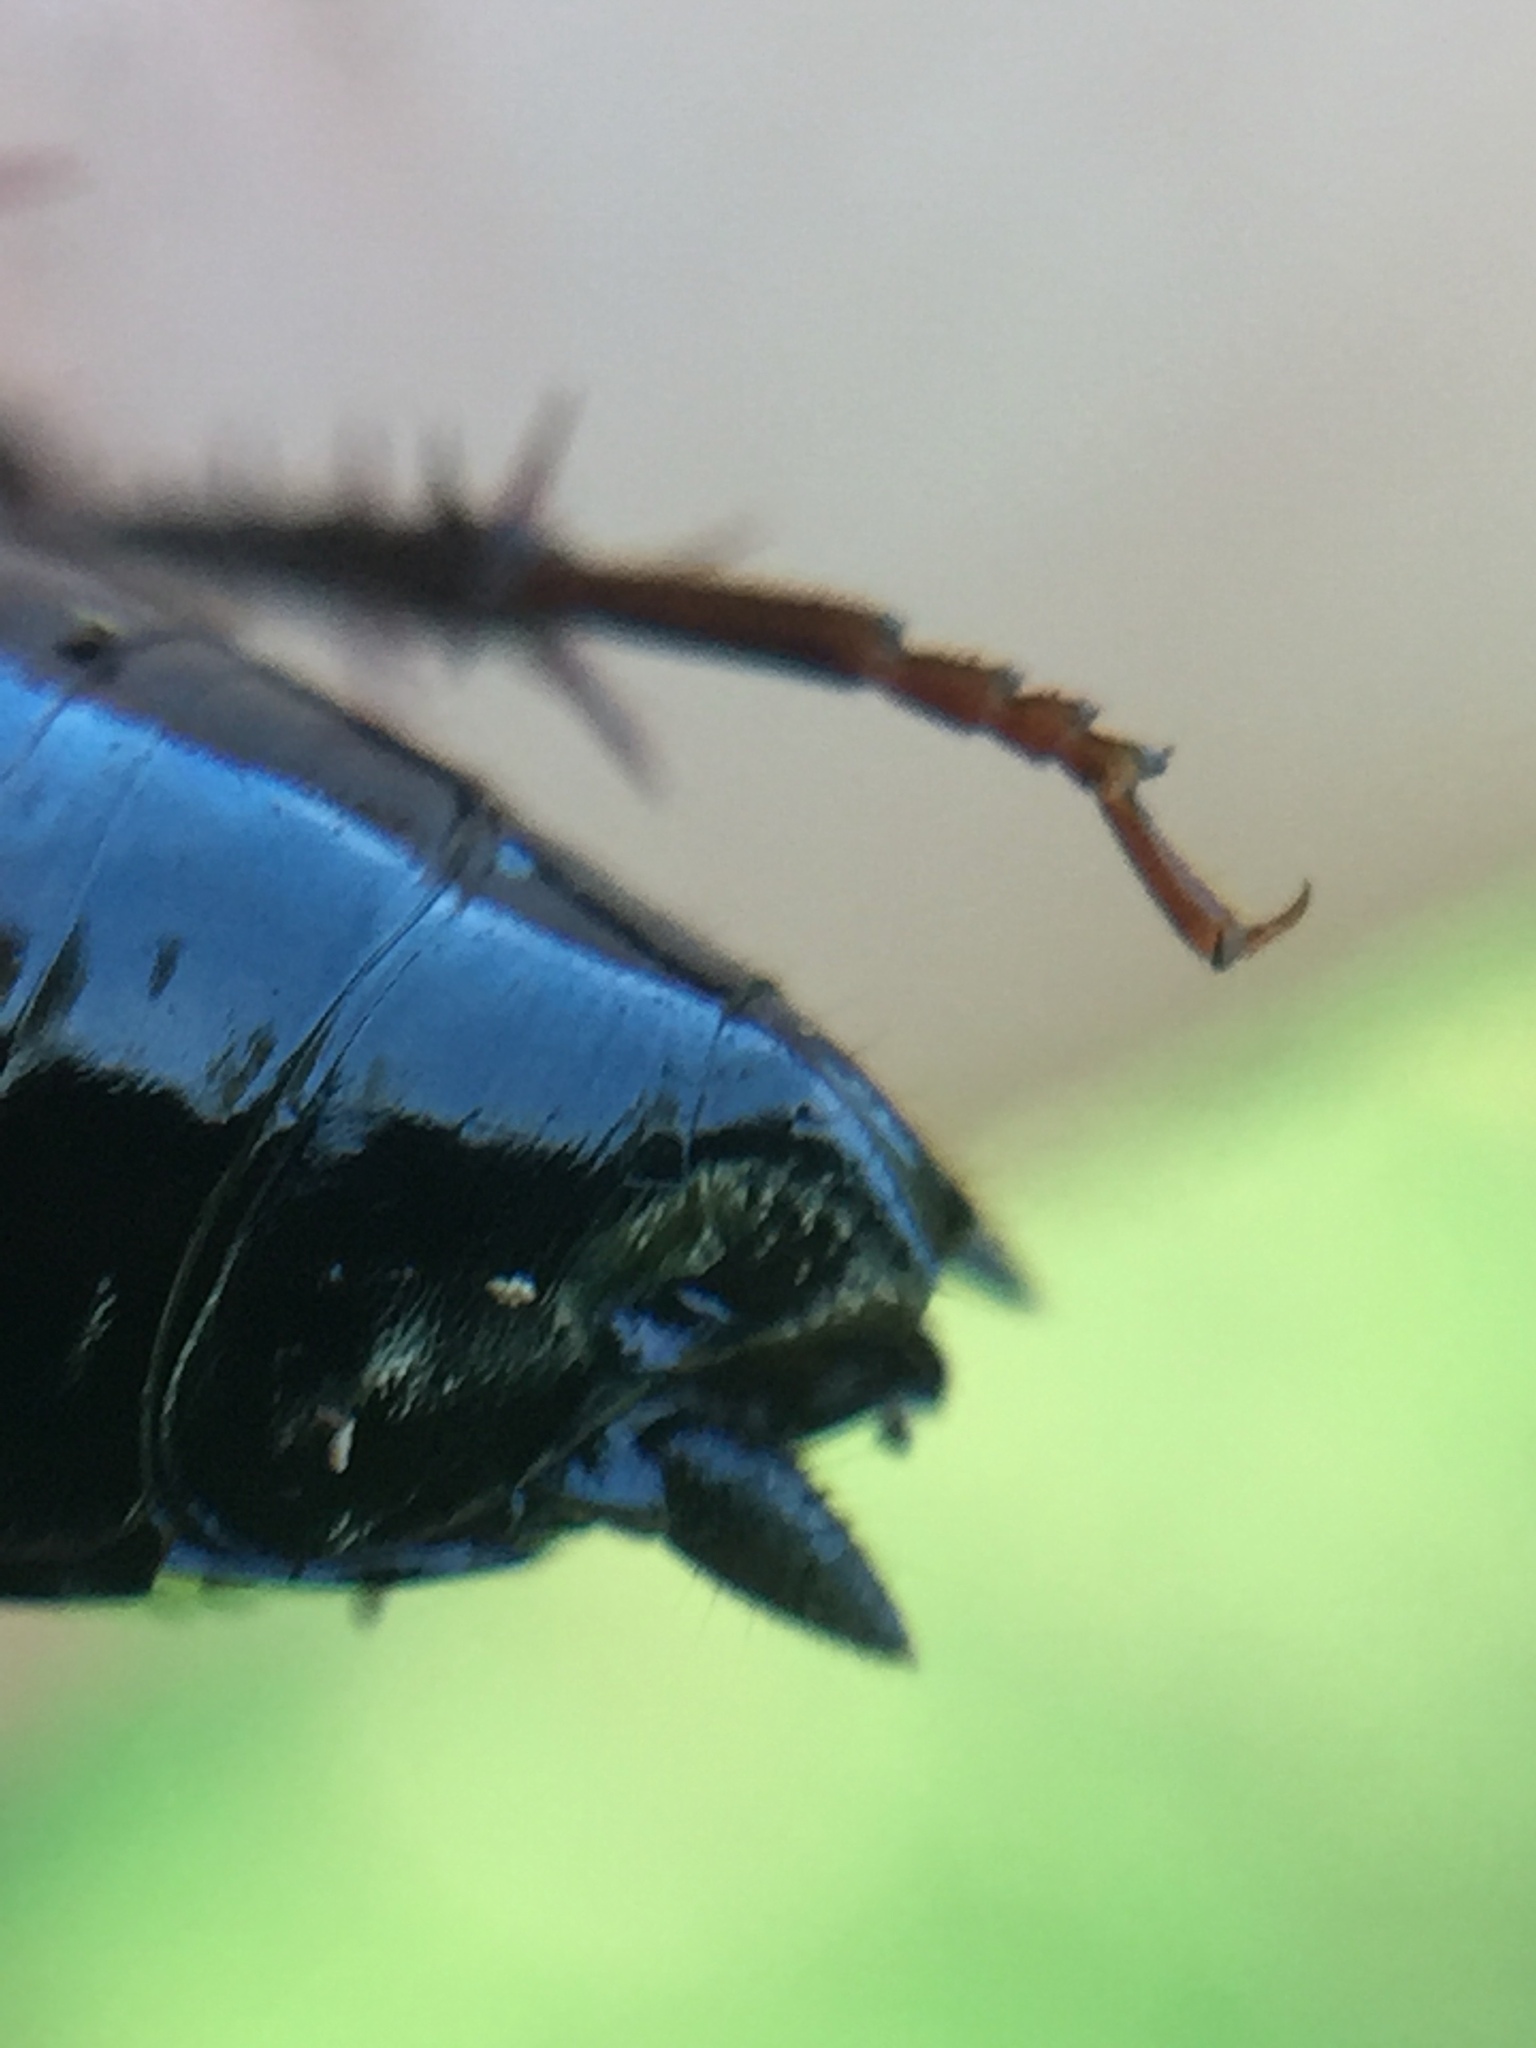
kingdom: Animalia
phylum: Arthropoda
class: Insecta
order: Blattodea
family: Tryonicidae
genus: Tryonicus
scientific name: Tryonicus parvus
